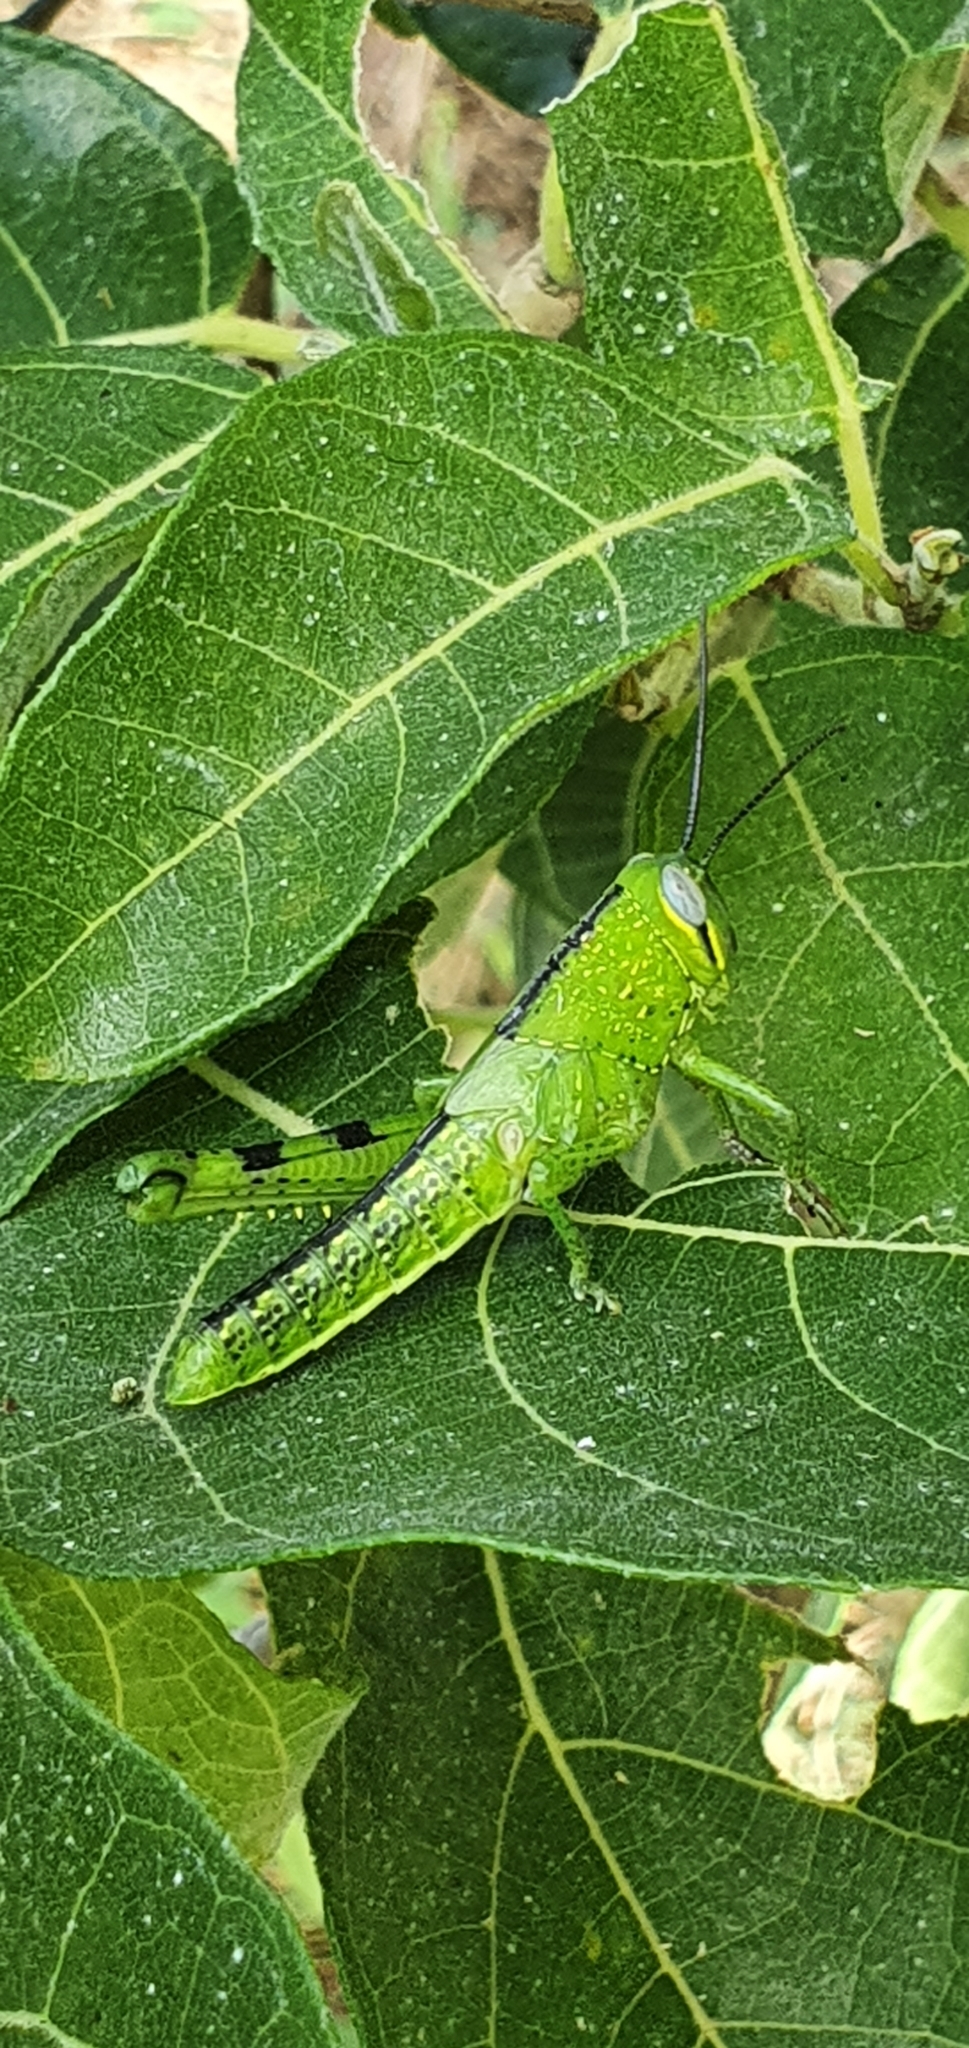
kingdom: Animalia
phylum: Arthropoda
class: Insecta
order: Orthoptera
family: Acrididae
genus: Valanga
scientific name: Valanga irregularis
